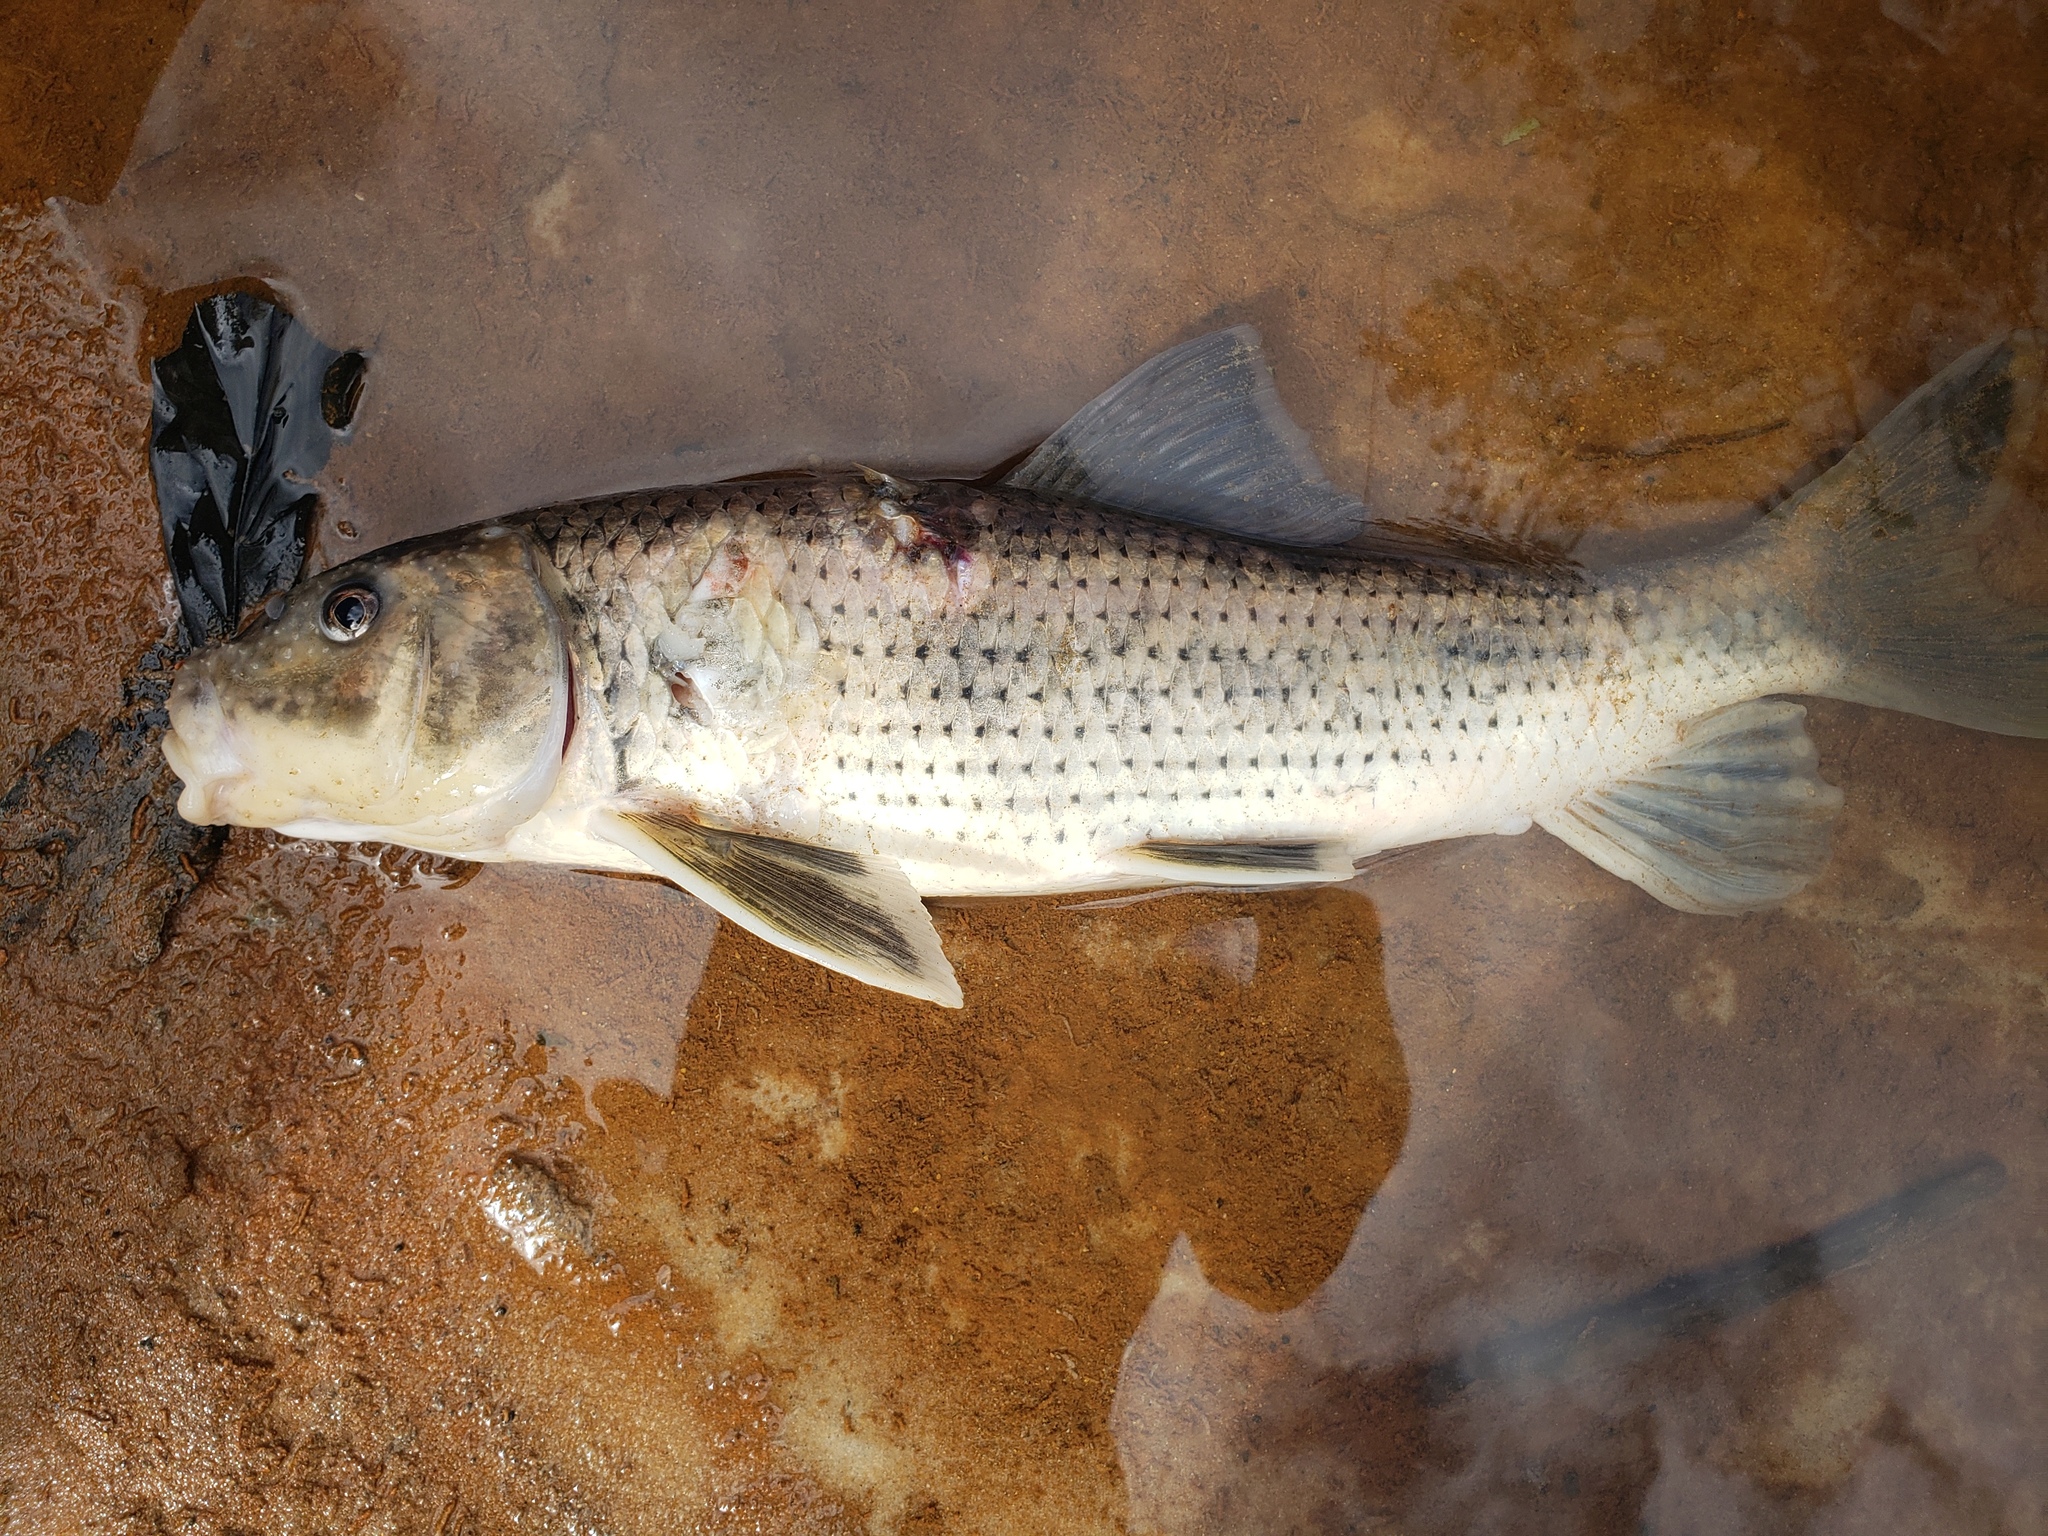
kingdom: Animalia
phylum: Chordata
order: Cypriniformes
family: Catostomidae
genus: Minytrema
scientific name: Minytrema melanops
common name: Spotted sucker
